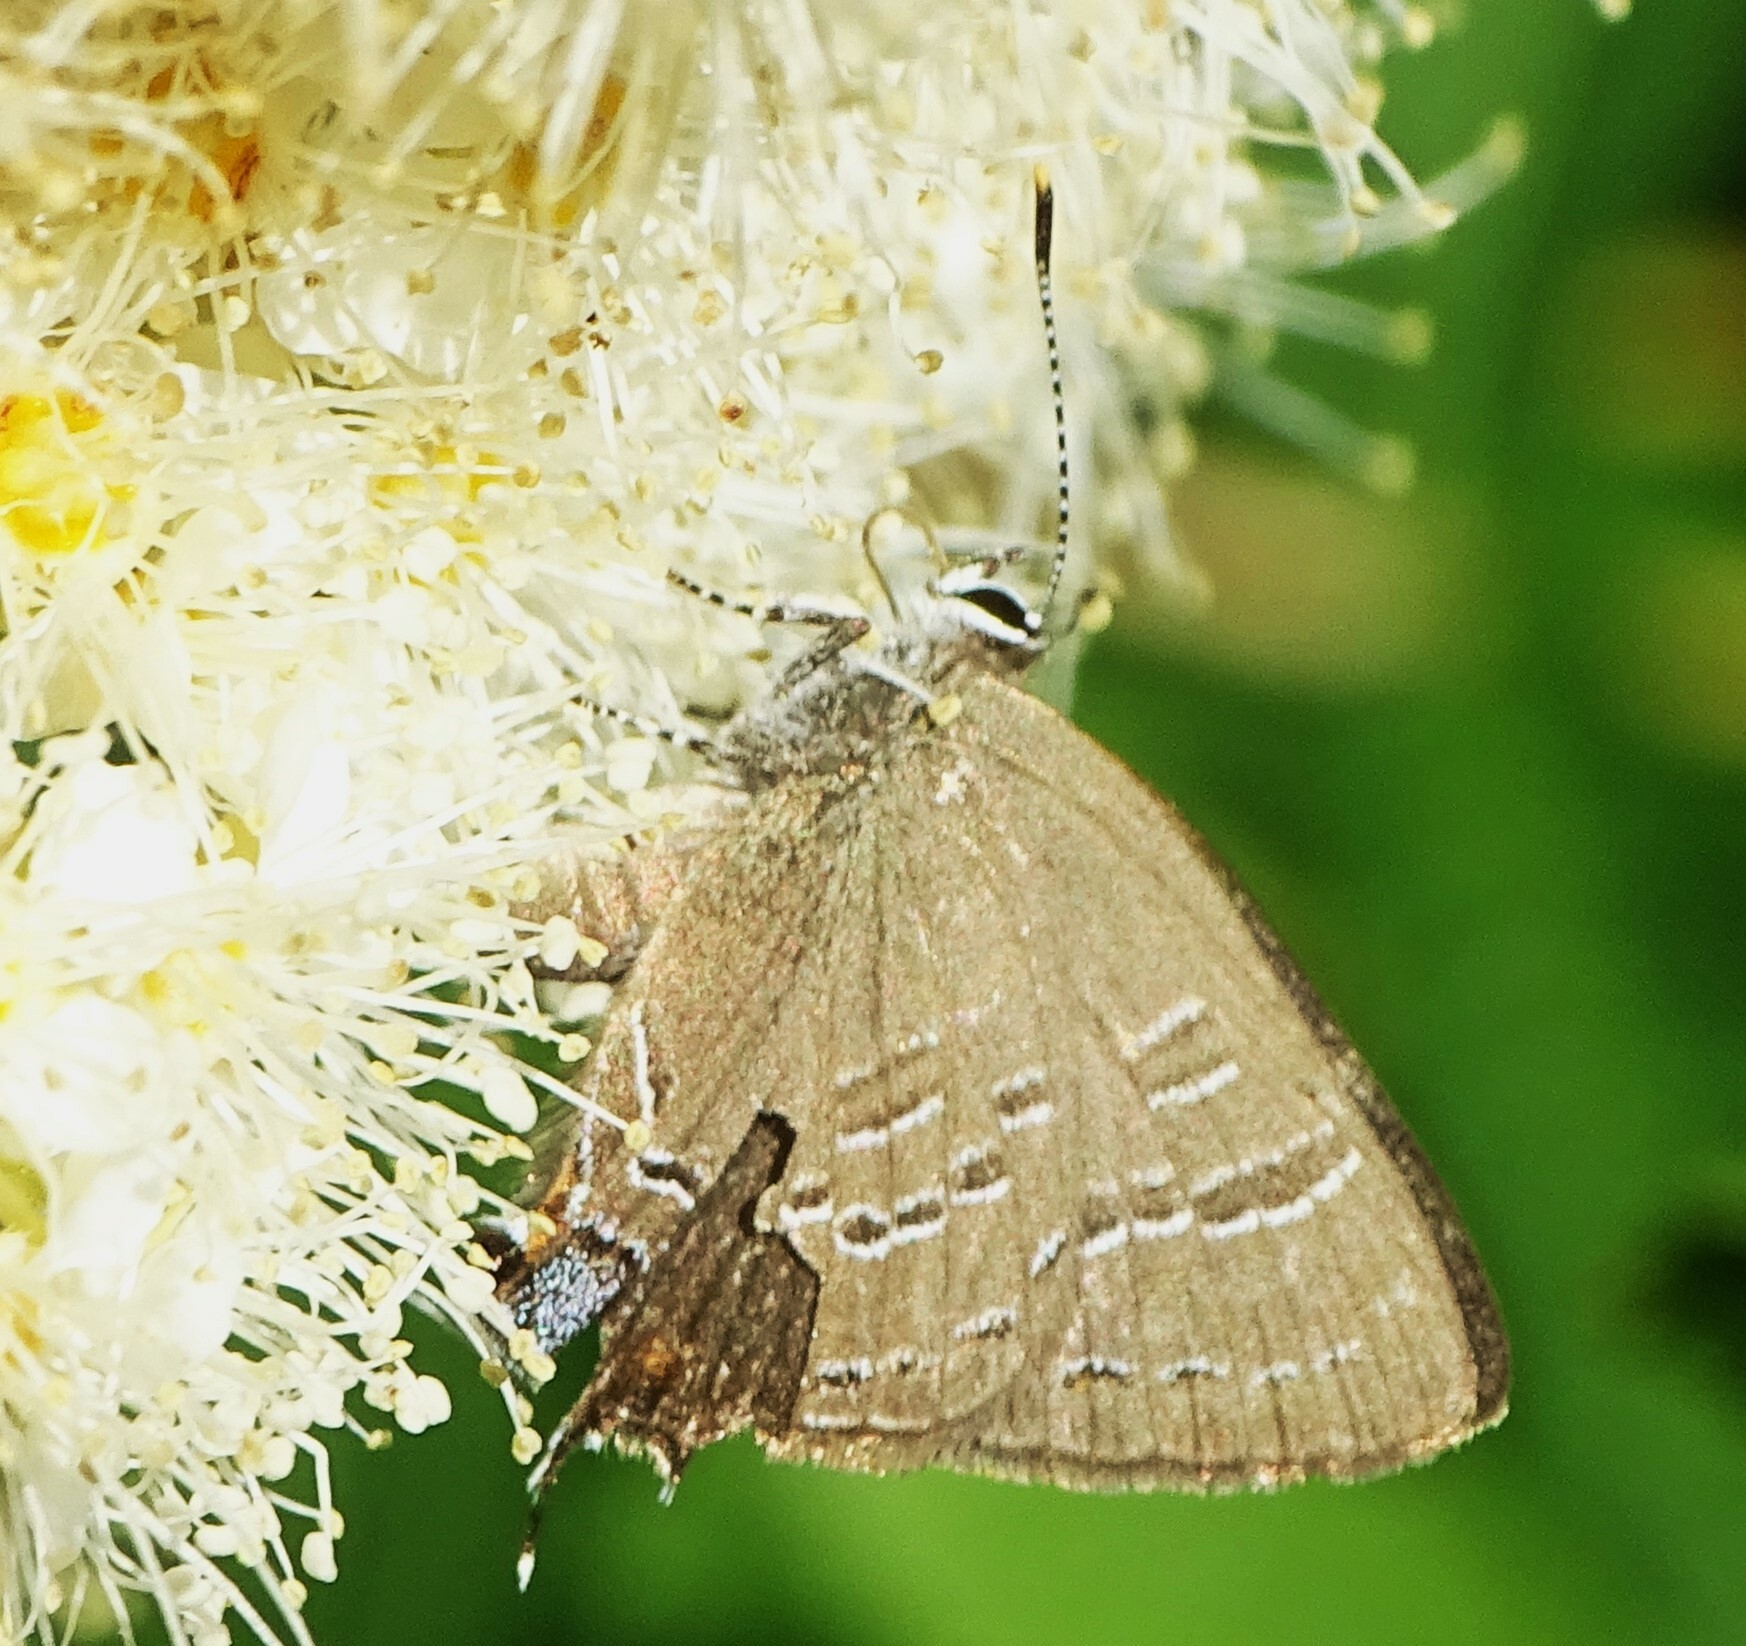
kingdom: Animalia
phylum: Arthropoda
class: Insecta
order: Lepidoptera
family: Lycaenidae
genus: Satyrium
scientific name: Satyrium calanus
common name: Banded hairstreak
